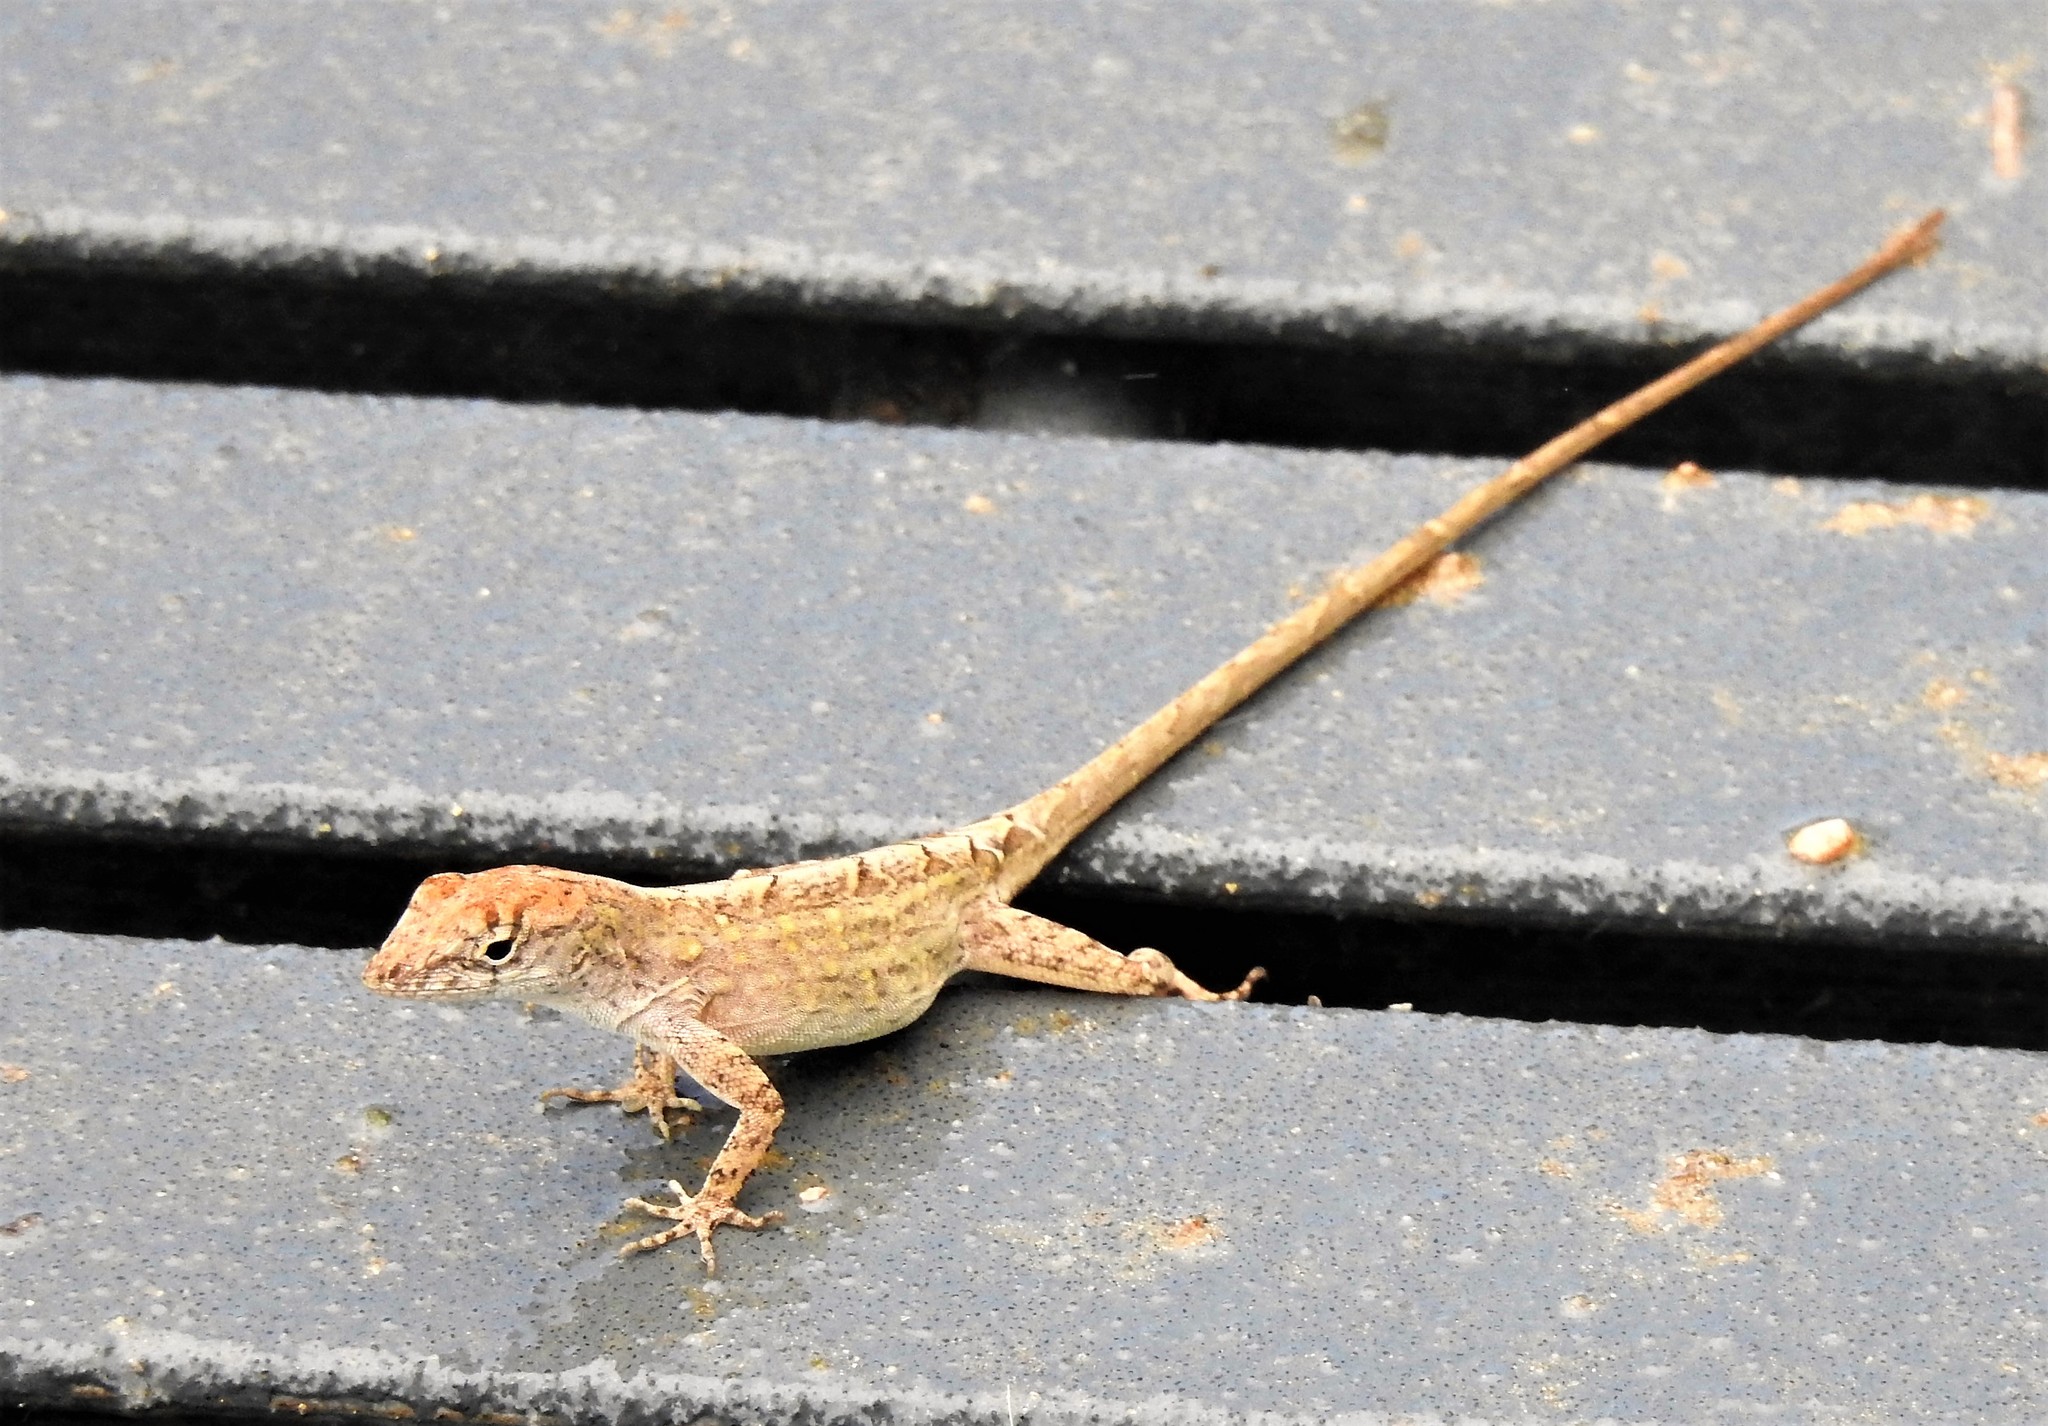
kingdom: Animalia
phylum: Chordata
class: Squamata
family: Dactyloidae
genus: Anolis
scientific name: Anolis sagrei
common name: Brown anole
